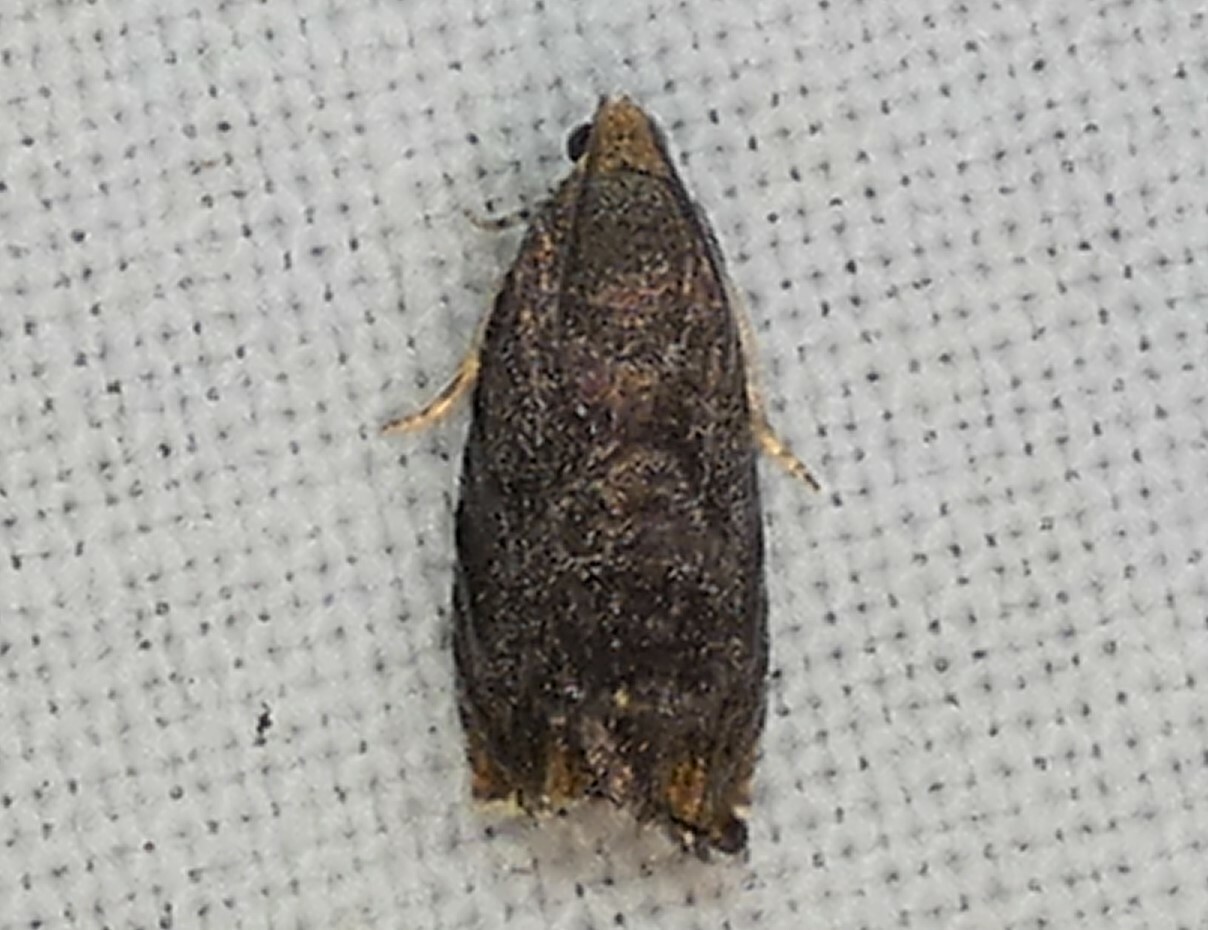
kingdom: Animalia
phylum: Arthropoda
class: Insecta
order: Lepidoptera
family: Tortricidae
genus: Cydia
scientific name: Cydia caryana
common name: Hickory shuckworm moth
